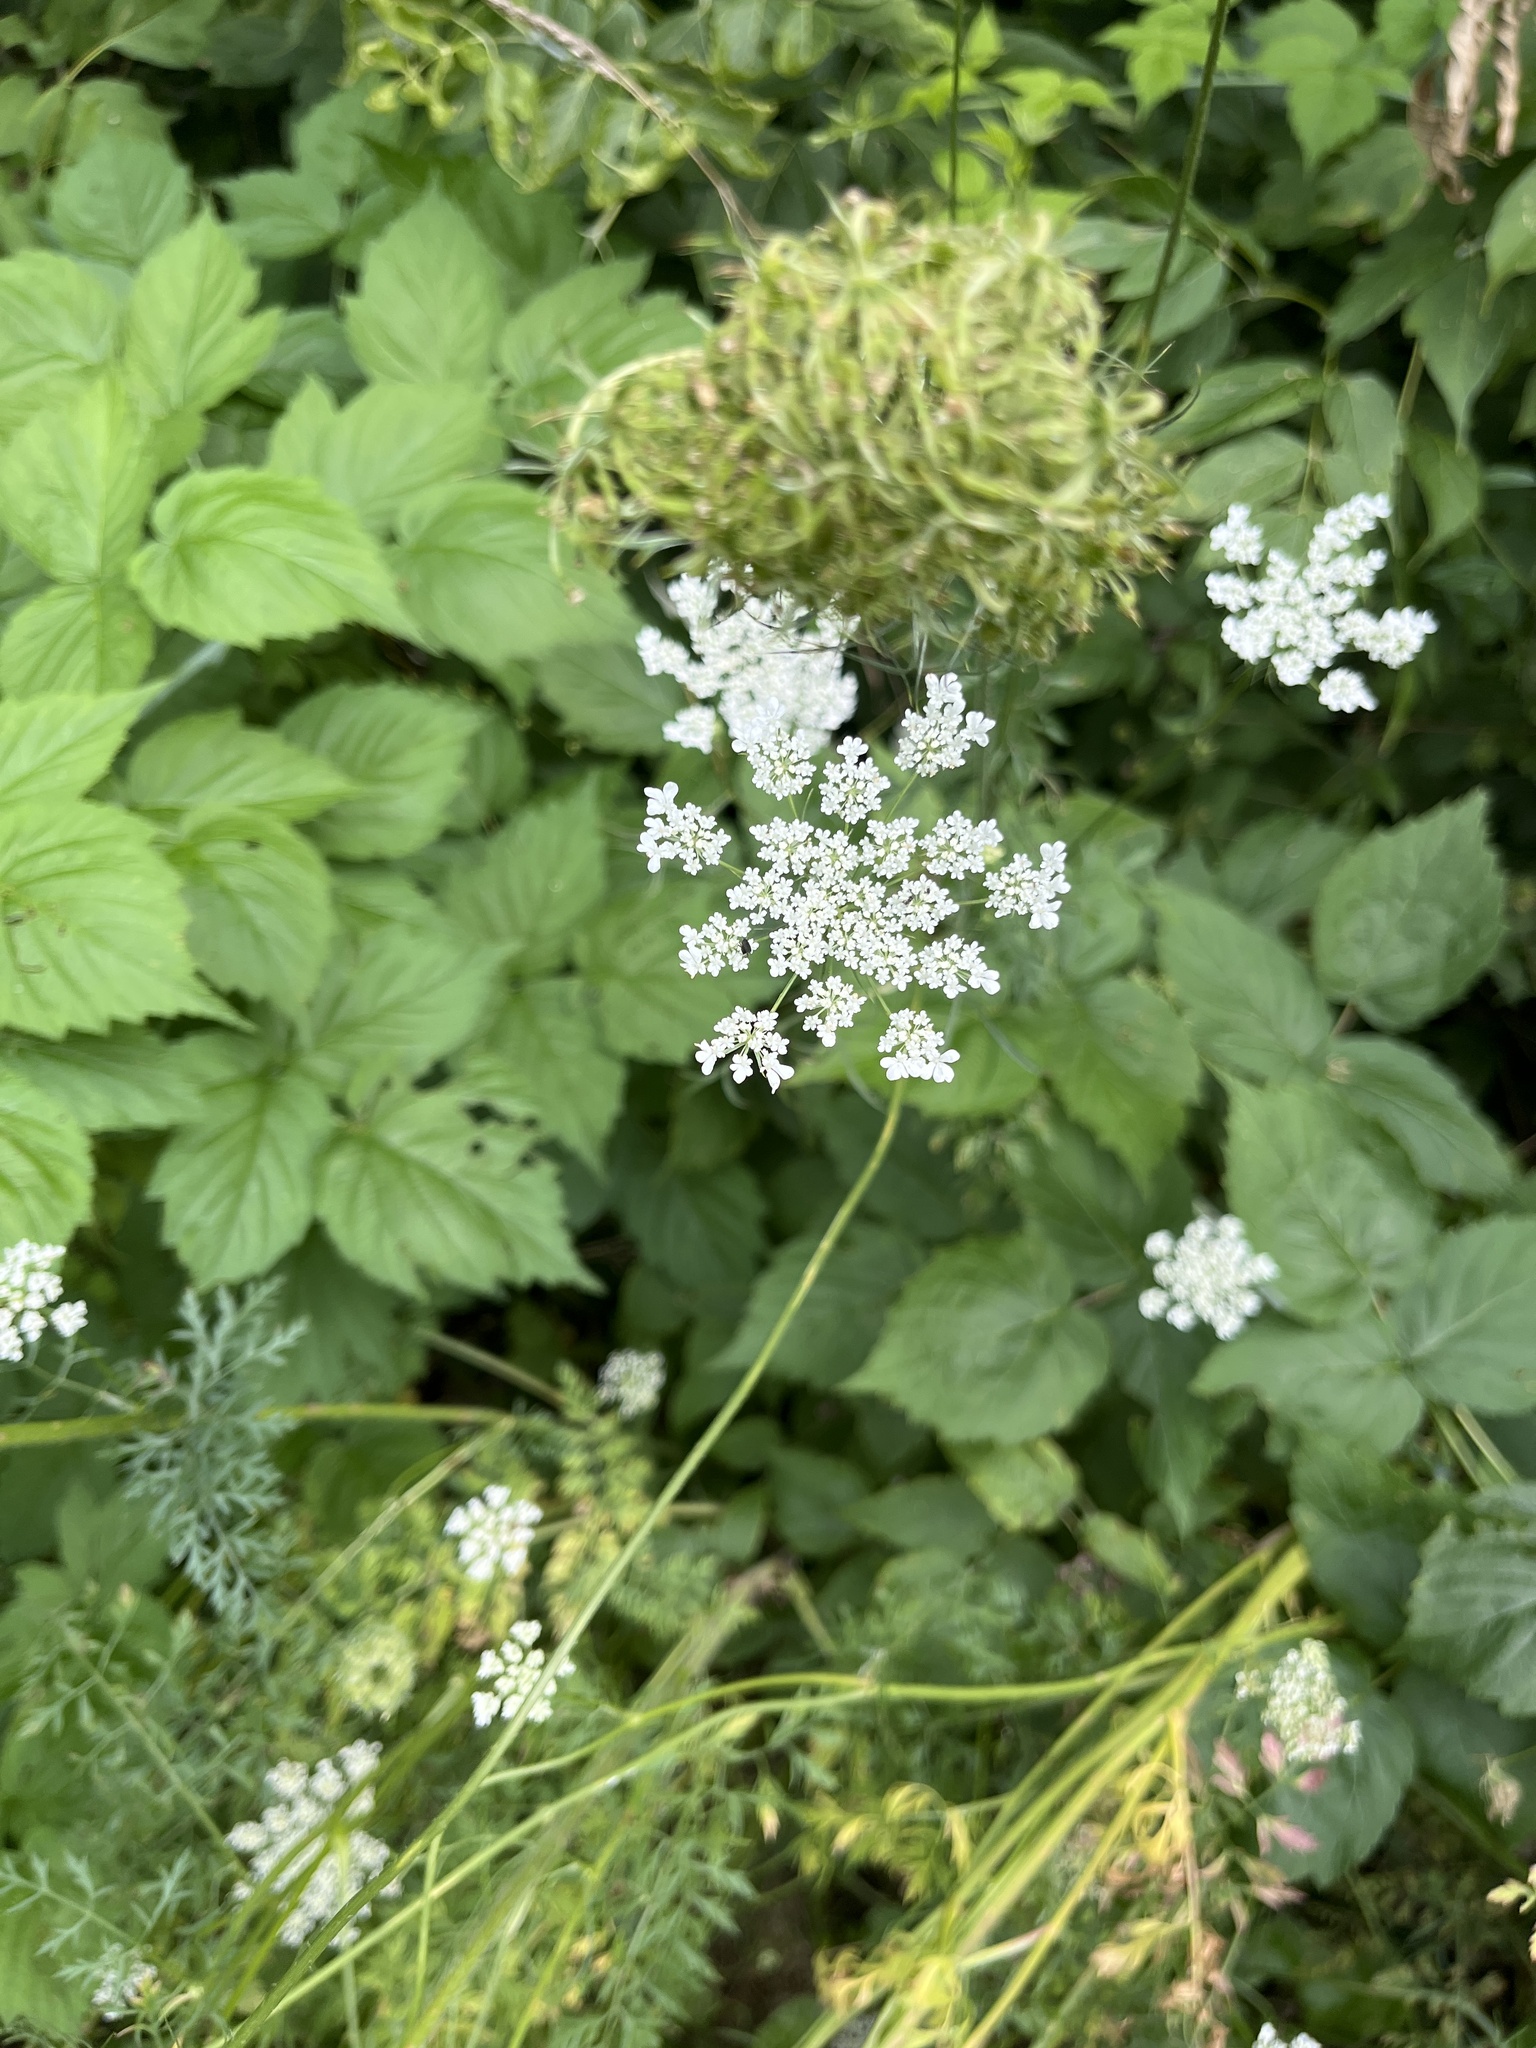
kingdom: Plantae
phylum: Tracheophyta
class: Magnoliopsida
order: Apiales
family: Apiaceae
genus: Daucus
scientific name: Daucus carota
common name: Wild carrot
